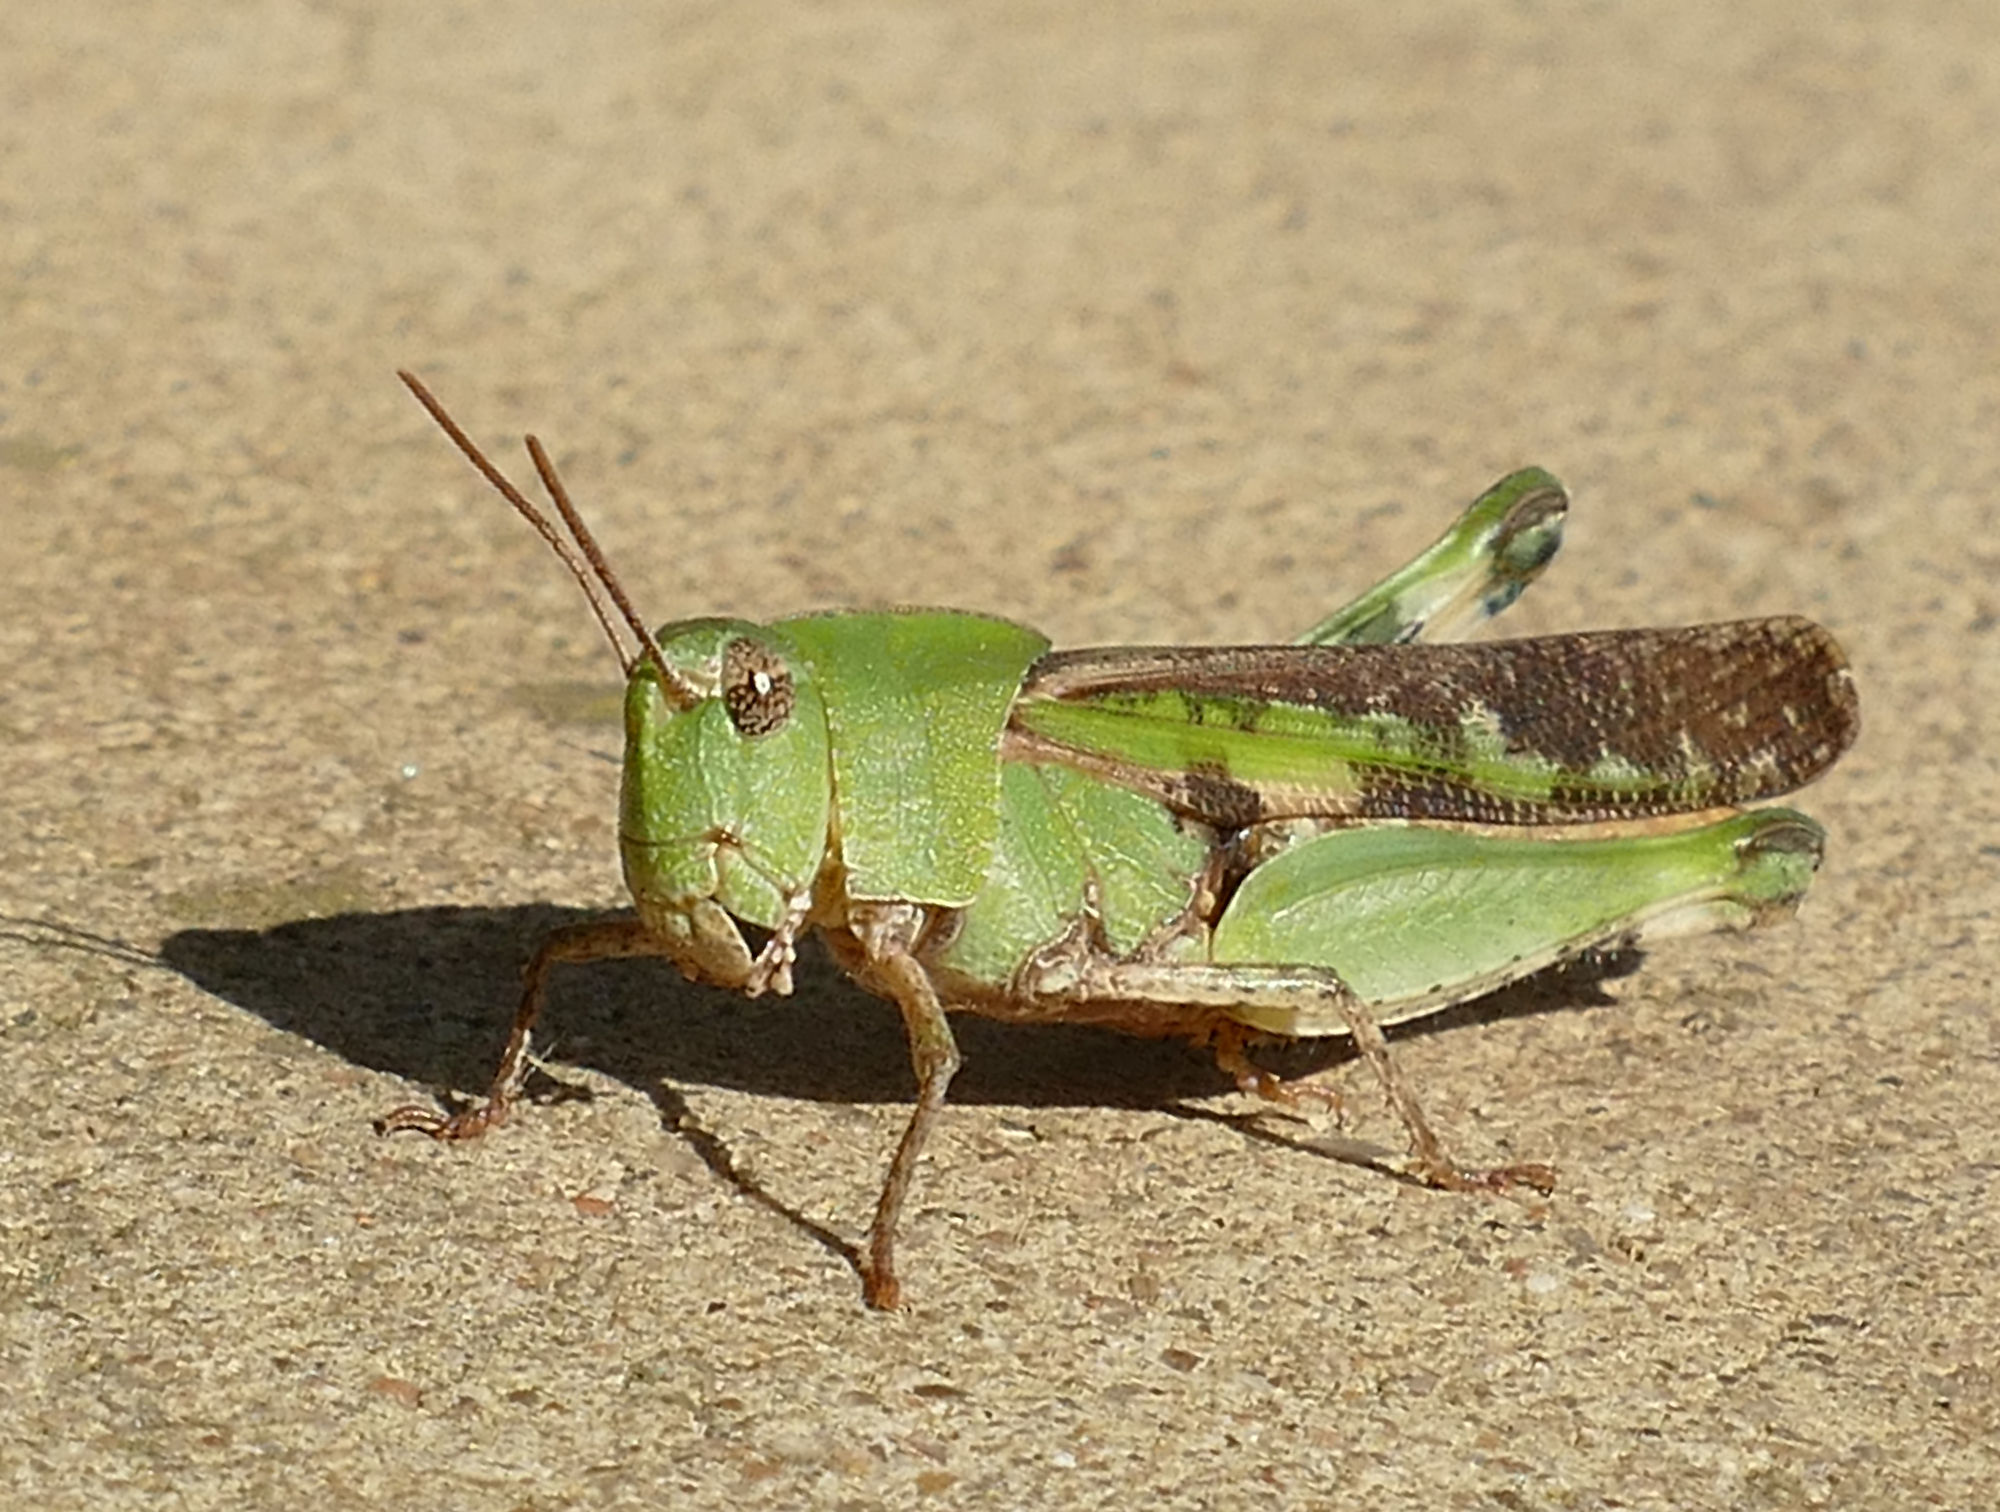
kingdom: Animalia
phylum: Arthropoda
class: Insecta
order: Orthoptera
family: Acrididae
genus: Chortophaga
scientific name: Chortophaga viridifasciata
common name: Green-striped grasshopper
